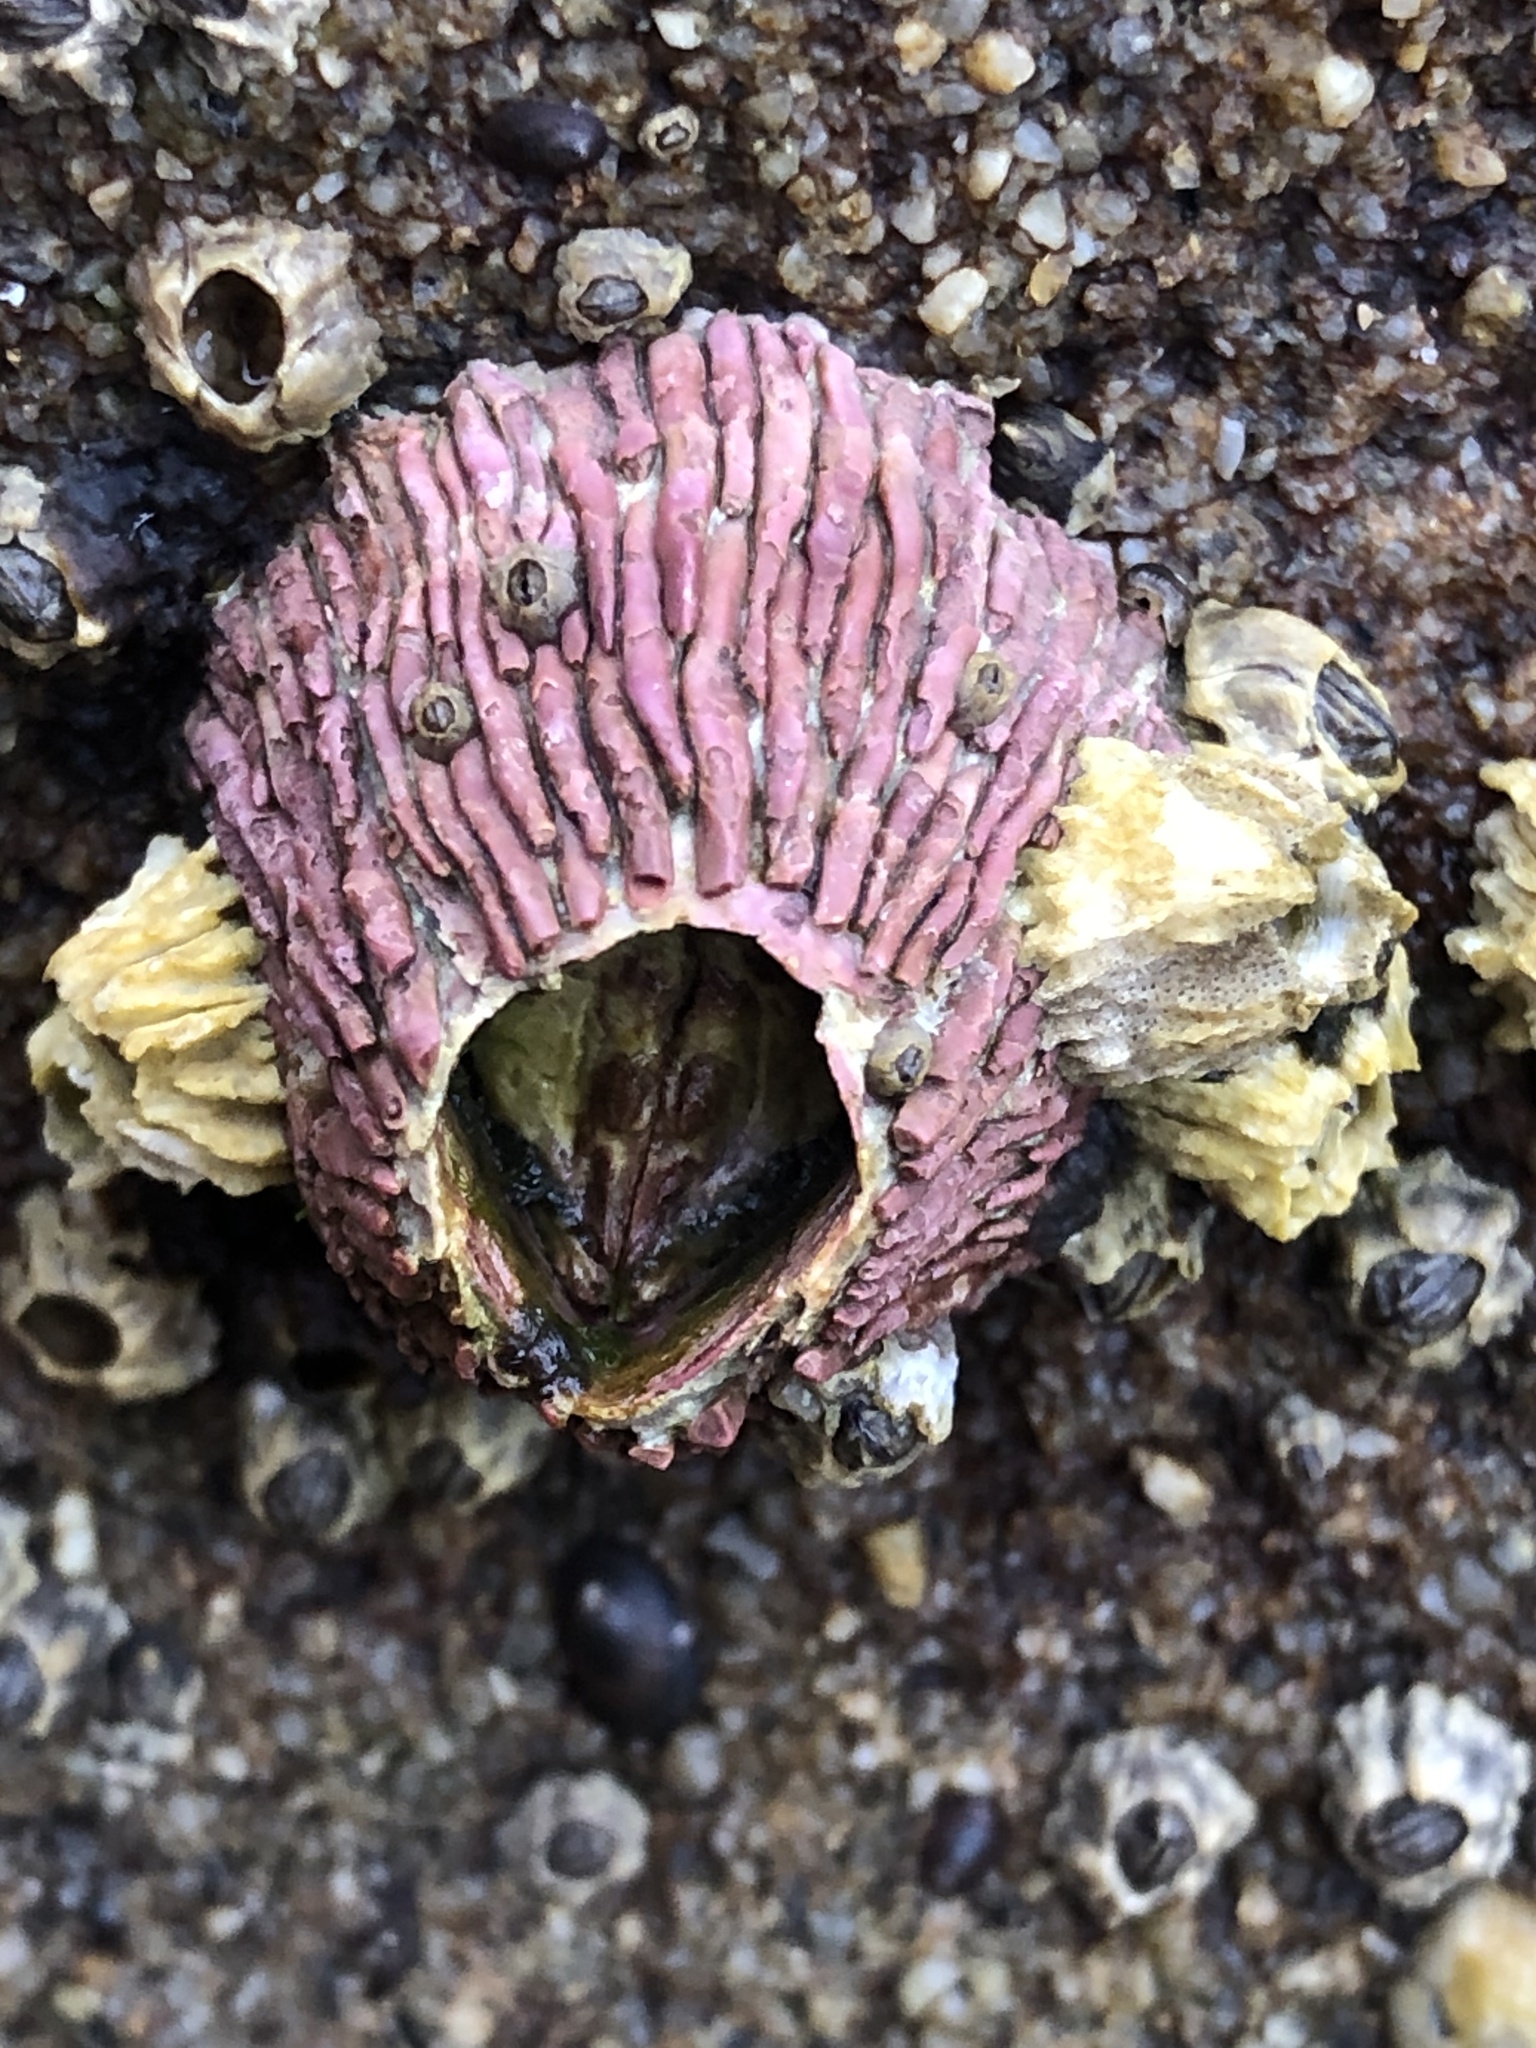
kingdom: Animalia
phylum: Arthropoda
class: Maxillopoda
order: Sessilia
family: Tetraclitidae
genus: Tetraclita
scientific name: Tetraclita rubescens
